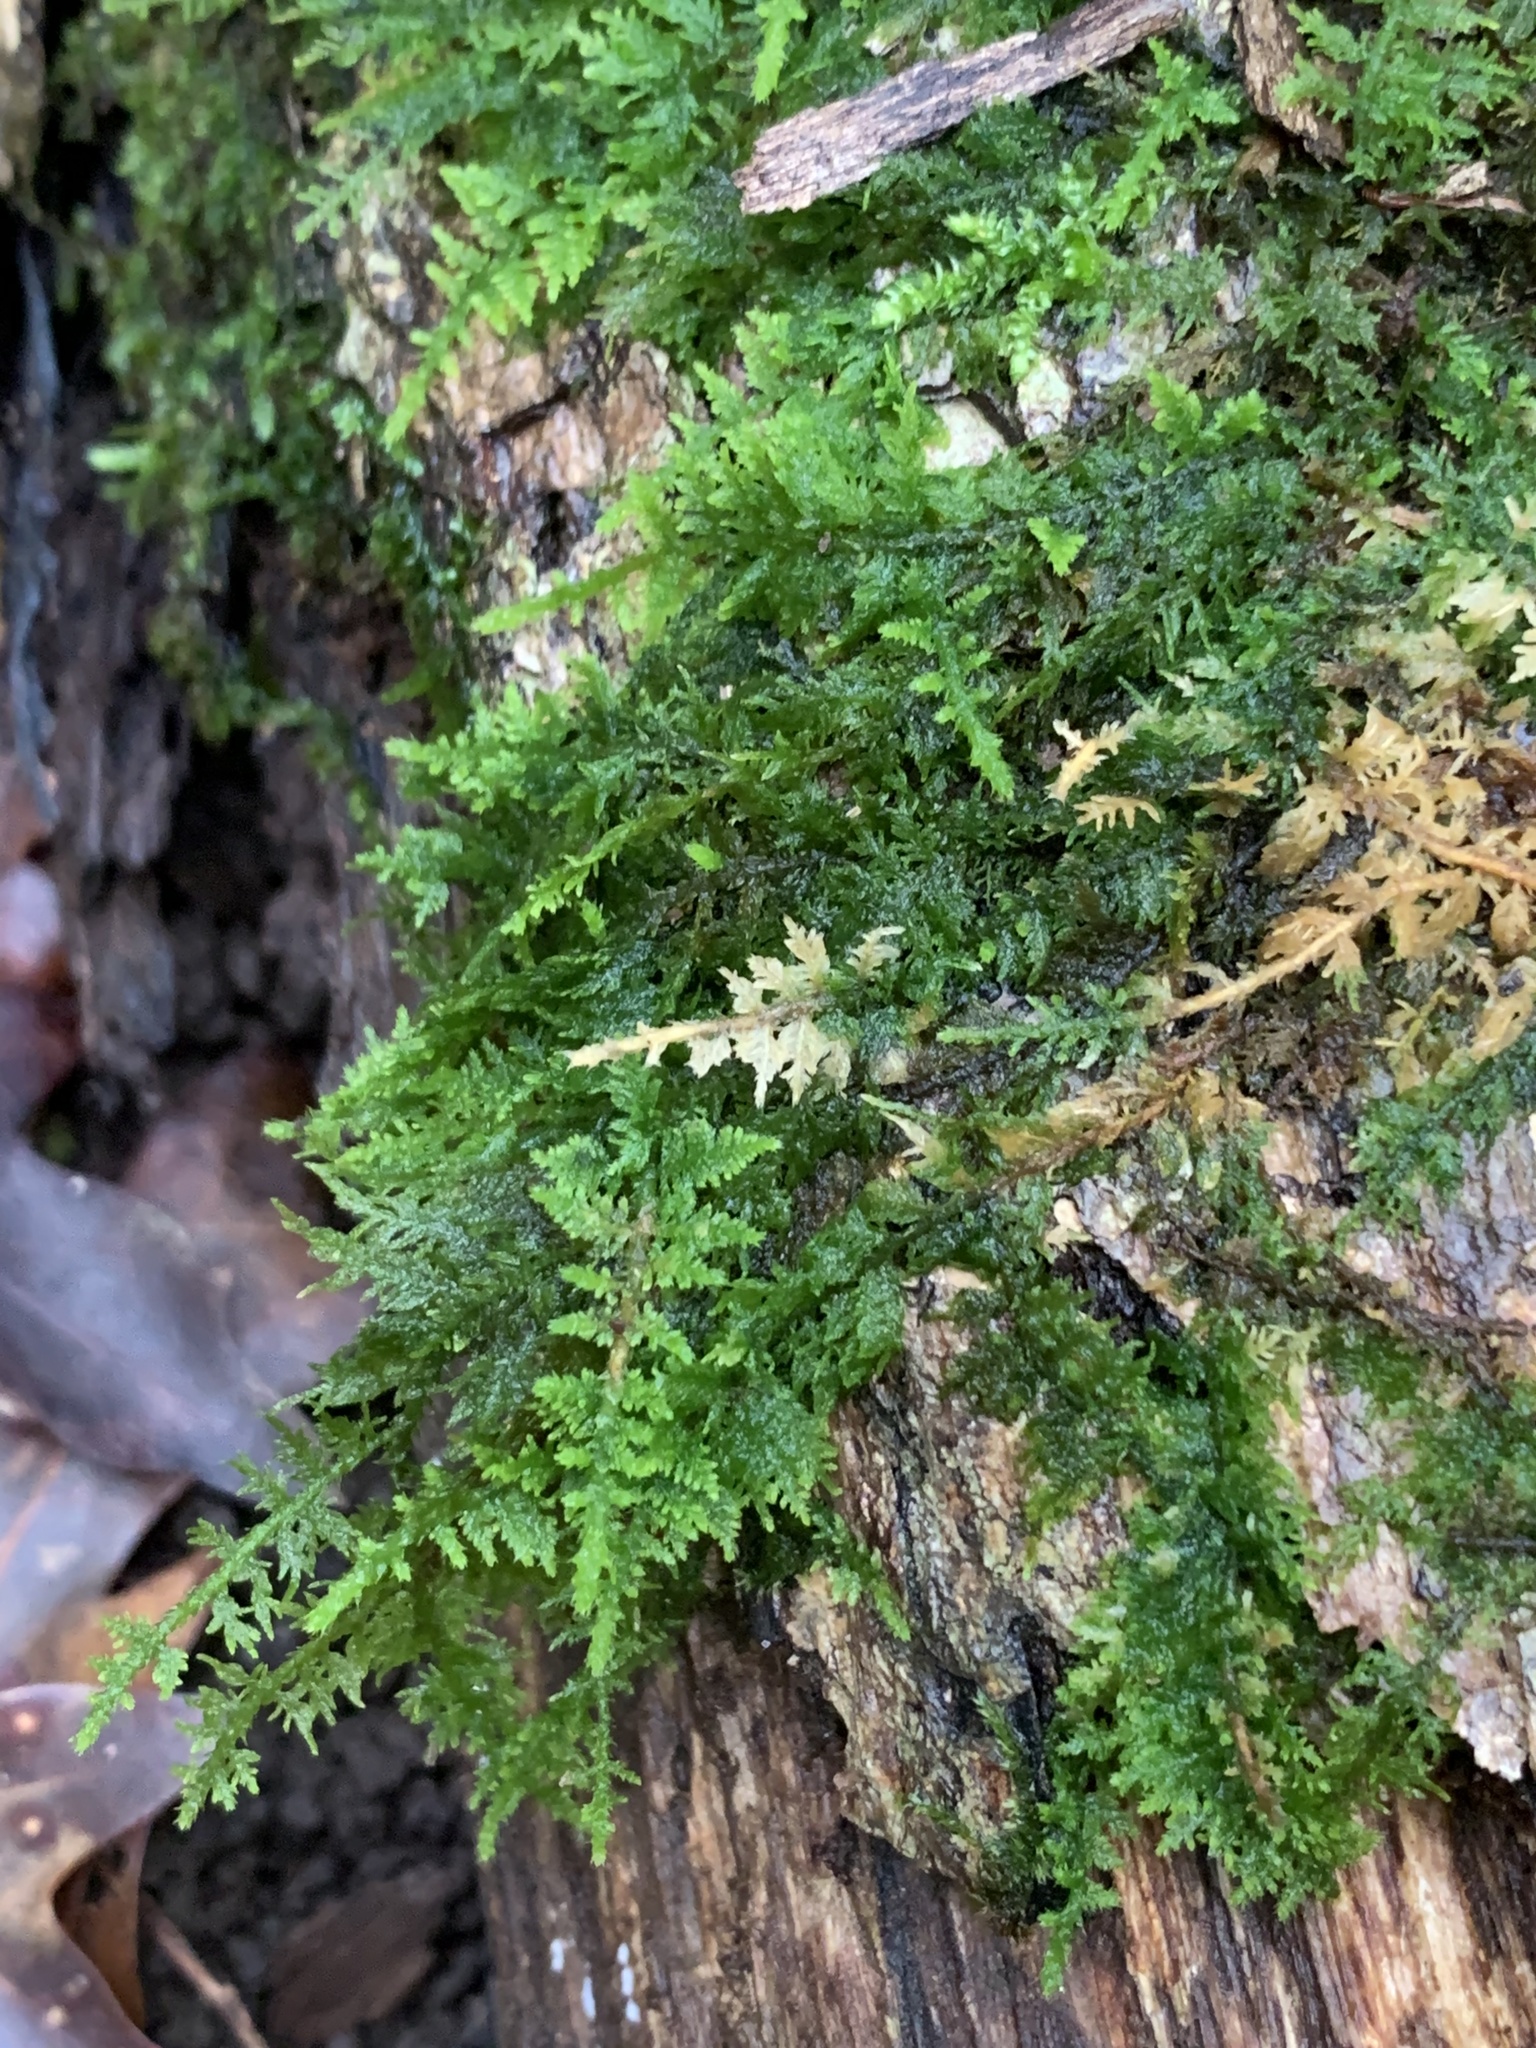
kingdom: Plantae
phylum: Bryophyta
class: Bryopsida
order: Hypnales
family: Thuidiaceae
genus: Thuidium
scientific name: Thuidium delicatulum
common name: Delicate fern moss
